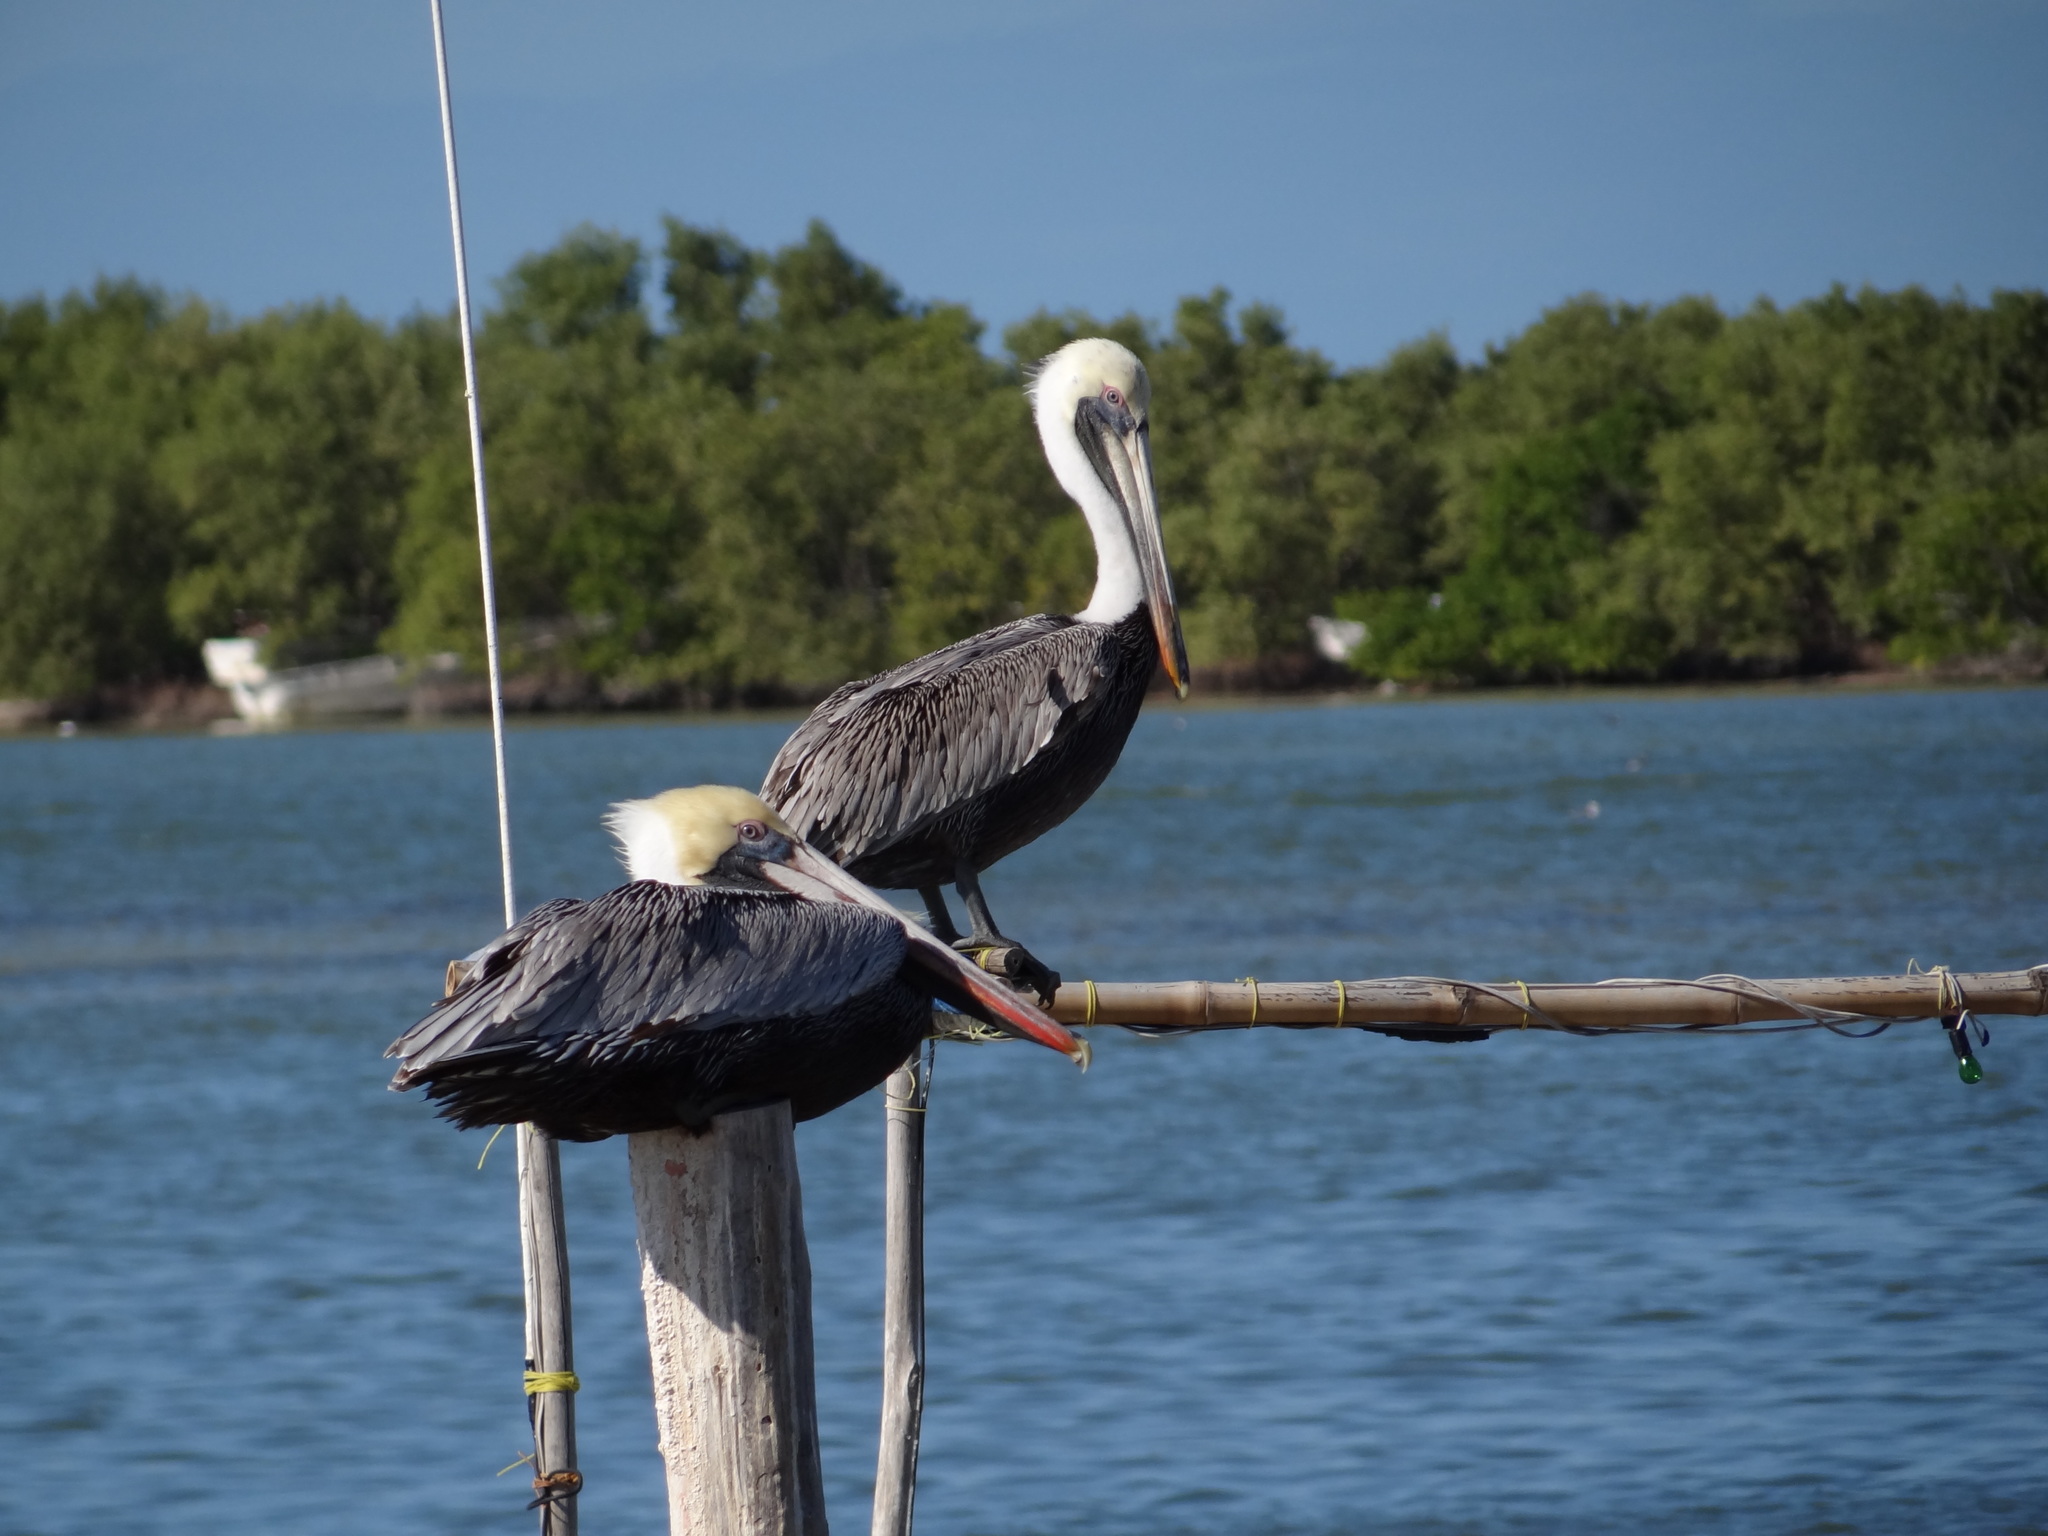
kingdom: Animalia
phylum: Chordata
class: Aves
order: Pelecaniformes
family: Pelecanidae
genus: Pelecanus
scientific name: Pelecanus occidentalis
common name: Brown pelican
